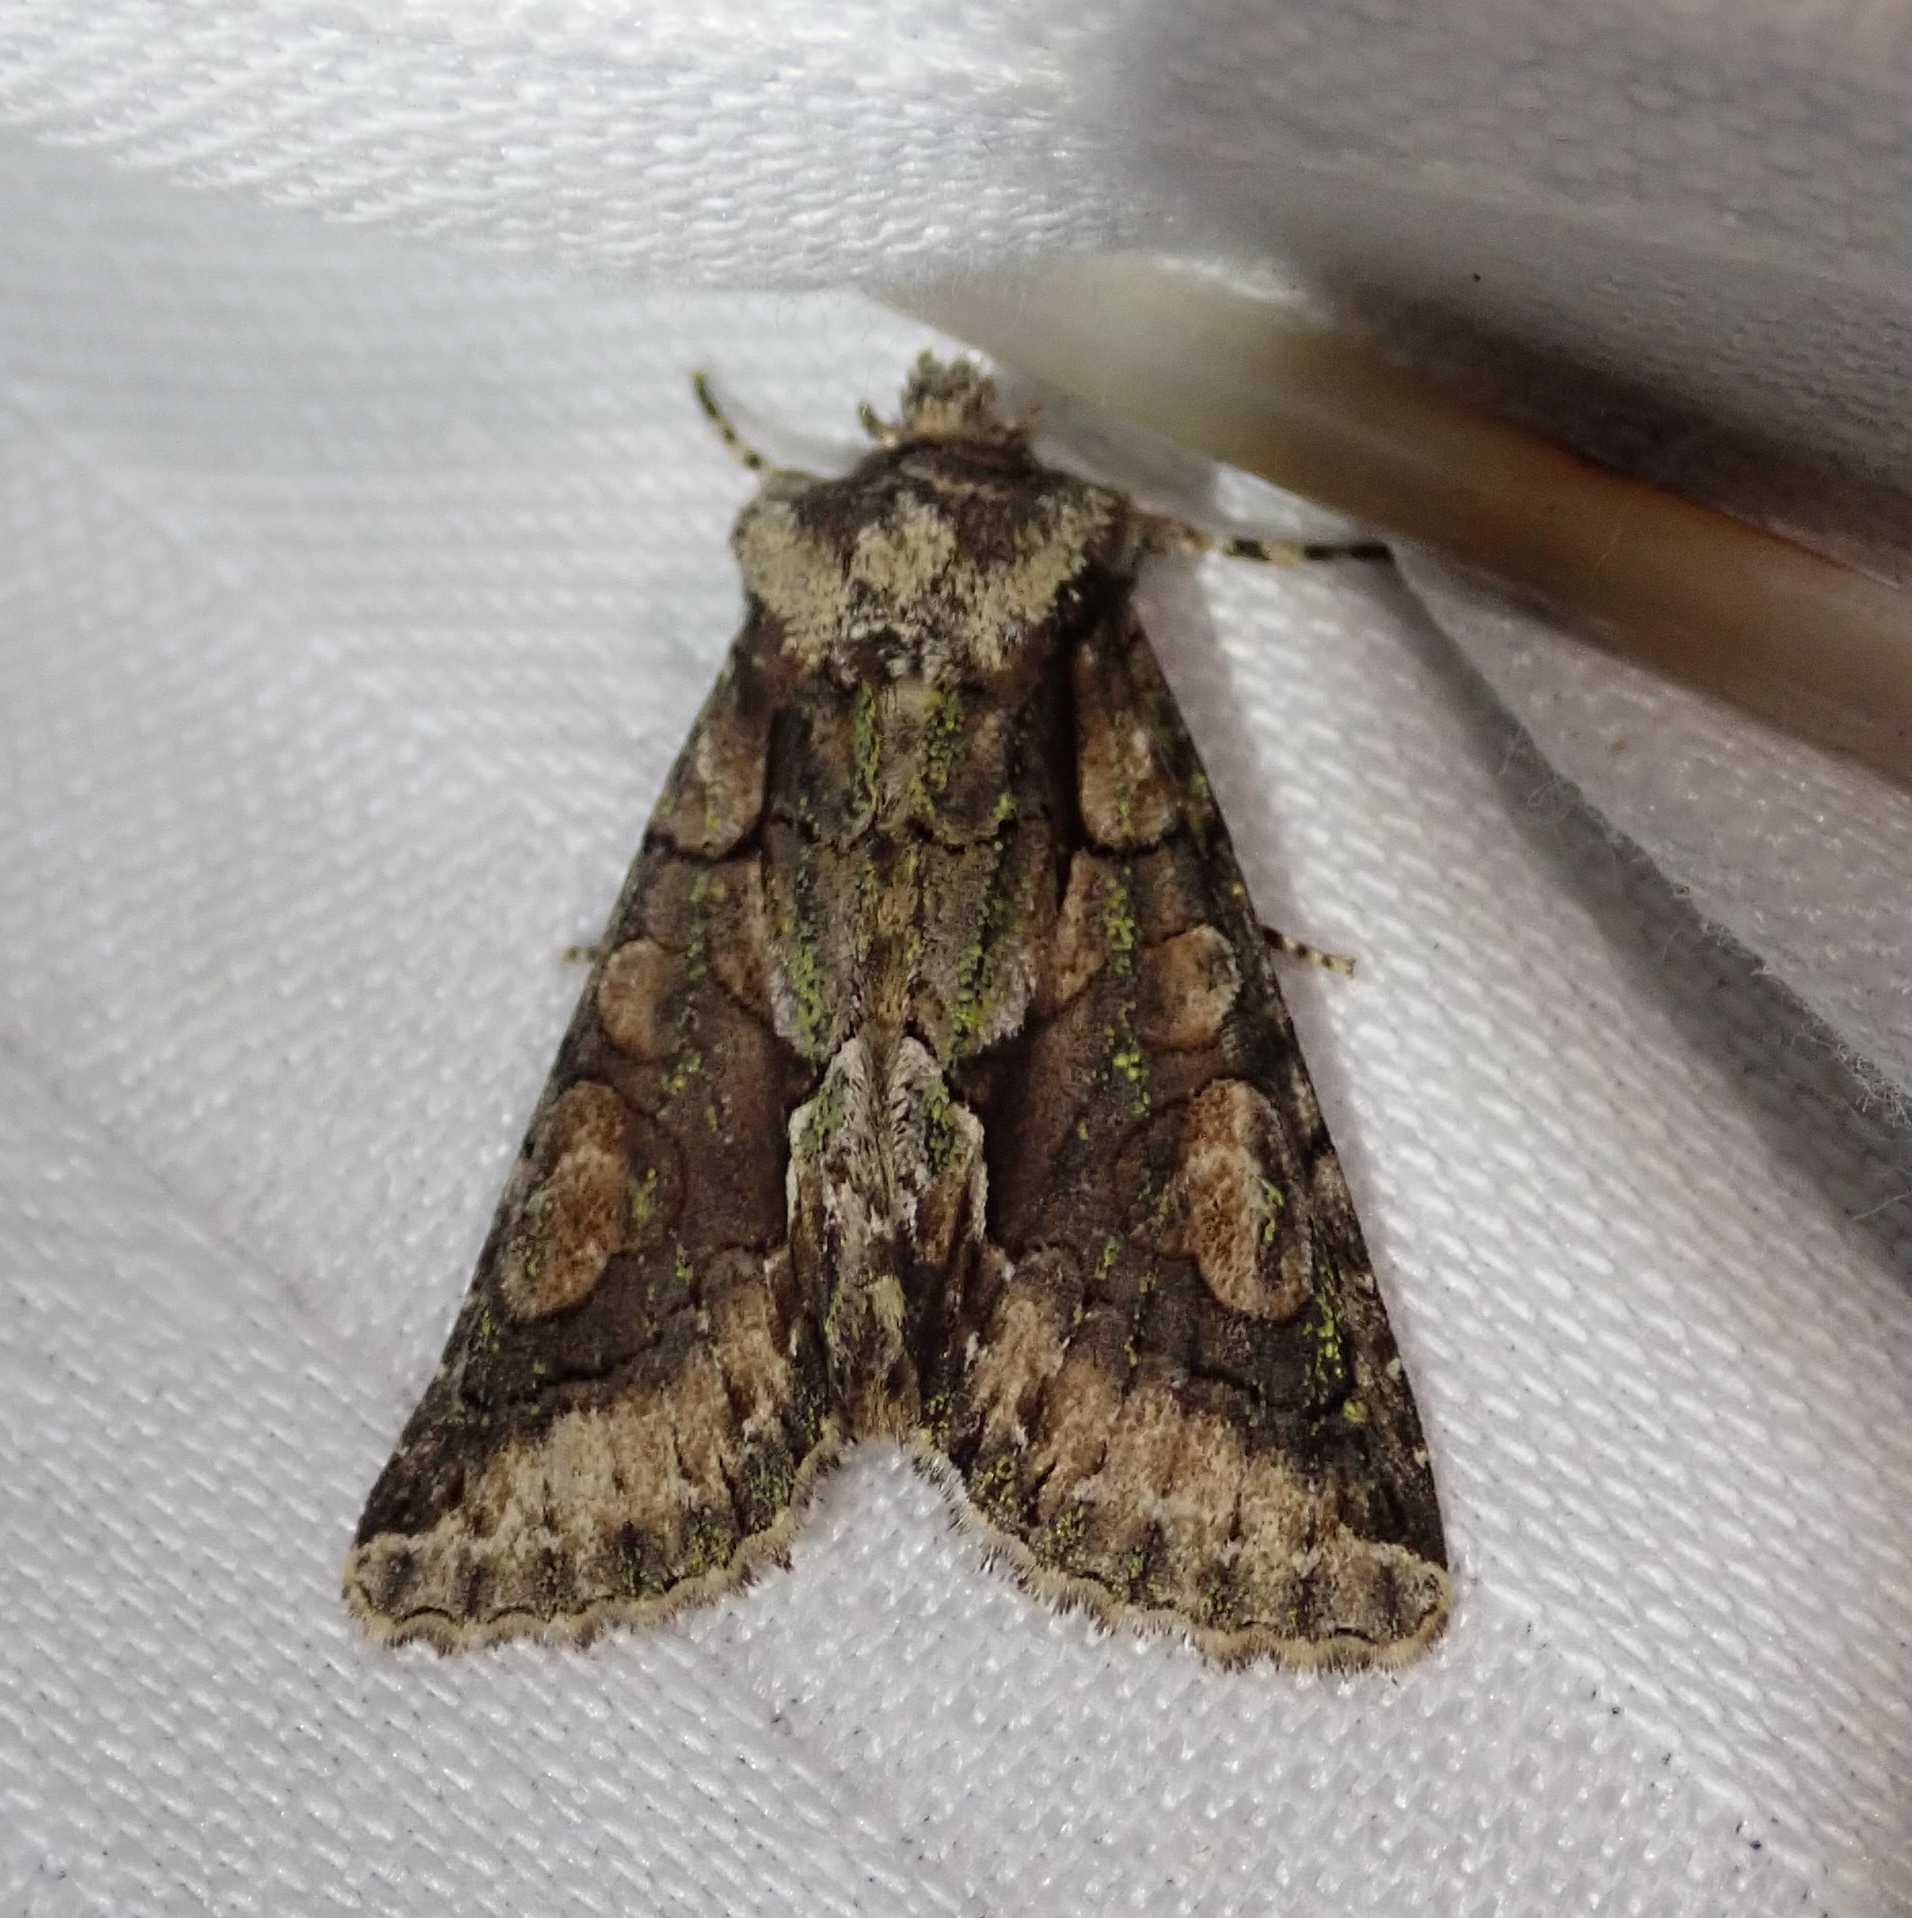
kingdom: Animalia
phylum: Arthropoda
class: Insecta
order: Lepidoptera
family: Noctuidae
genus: Allophyes
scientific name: Allophyes oxyacanthae
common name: Green-brindled crescent
